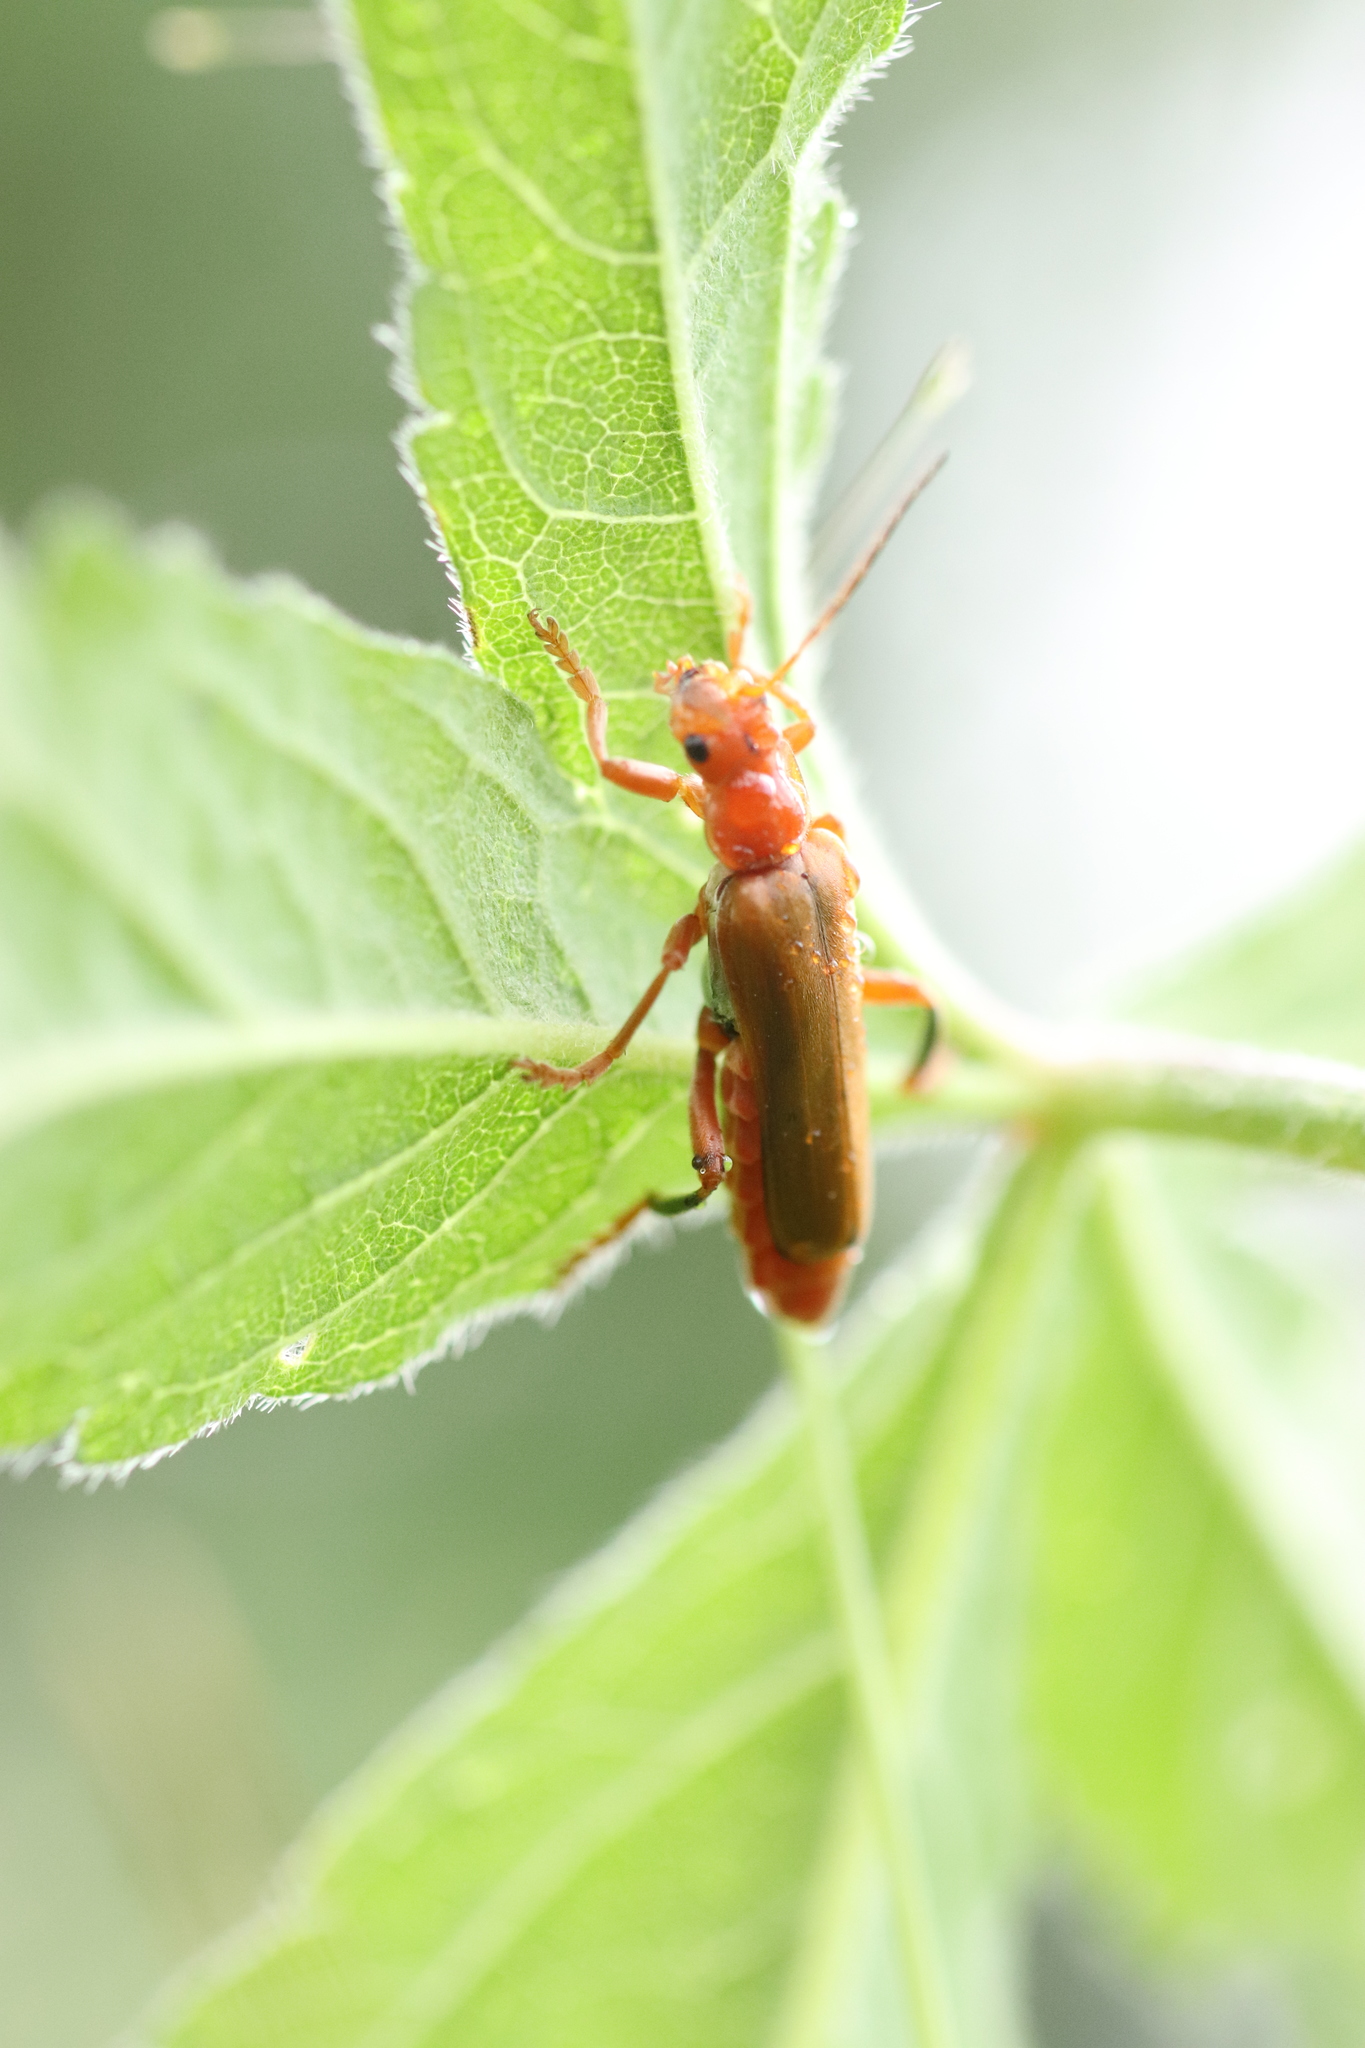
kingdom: Animalia
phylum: Arthropoda
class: Insecta
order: Coleoptera
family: Cantharidae
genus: Cantharis
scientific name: Cantharis livida
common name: Livid soldier beetle
